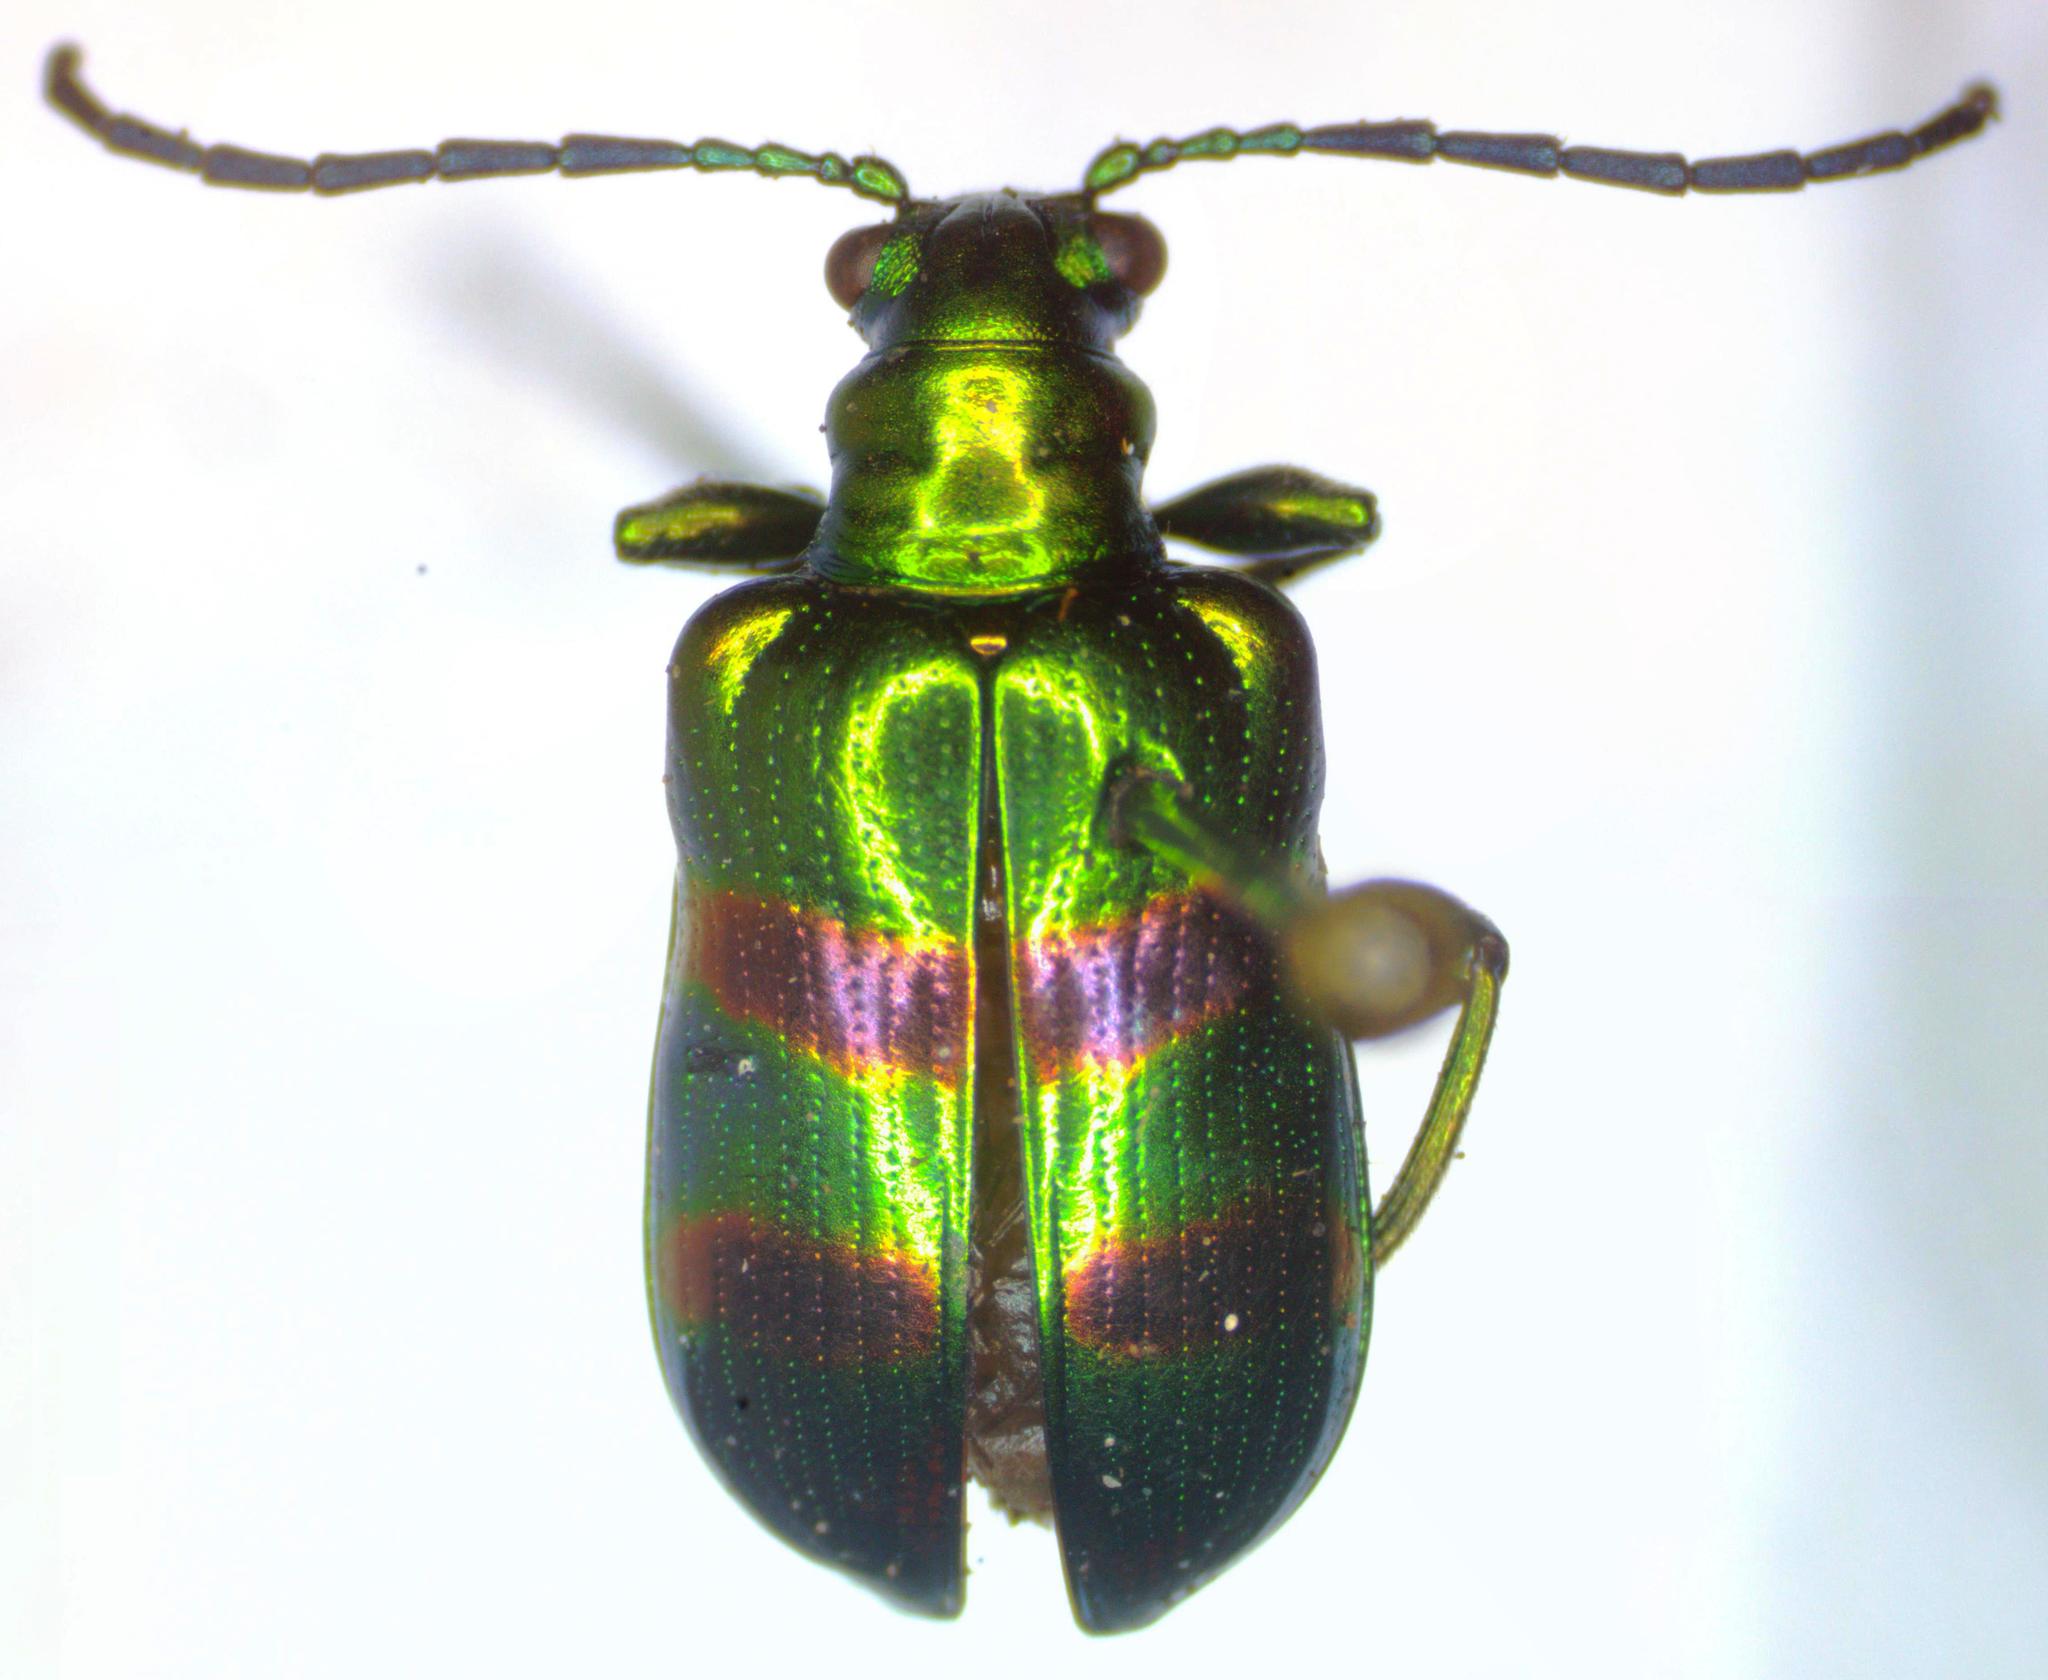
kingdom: Animalia
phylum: Arthropoda
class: Insecta
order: Coleoptera
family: Chrysomelidae
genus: Metopoceris
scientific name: Metopoceris gemmans
